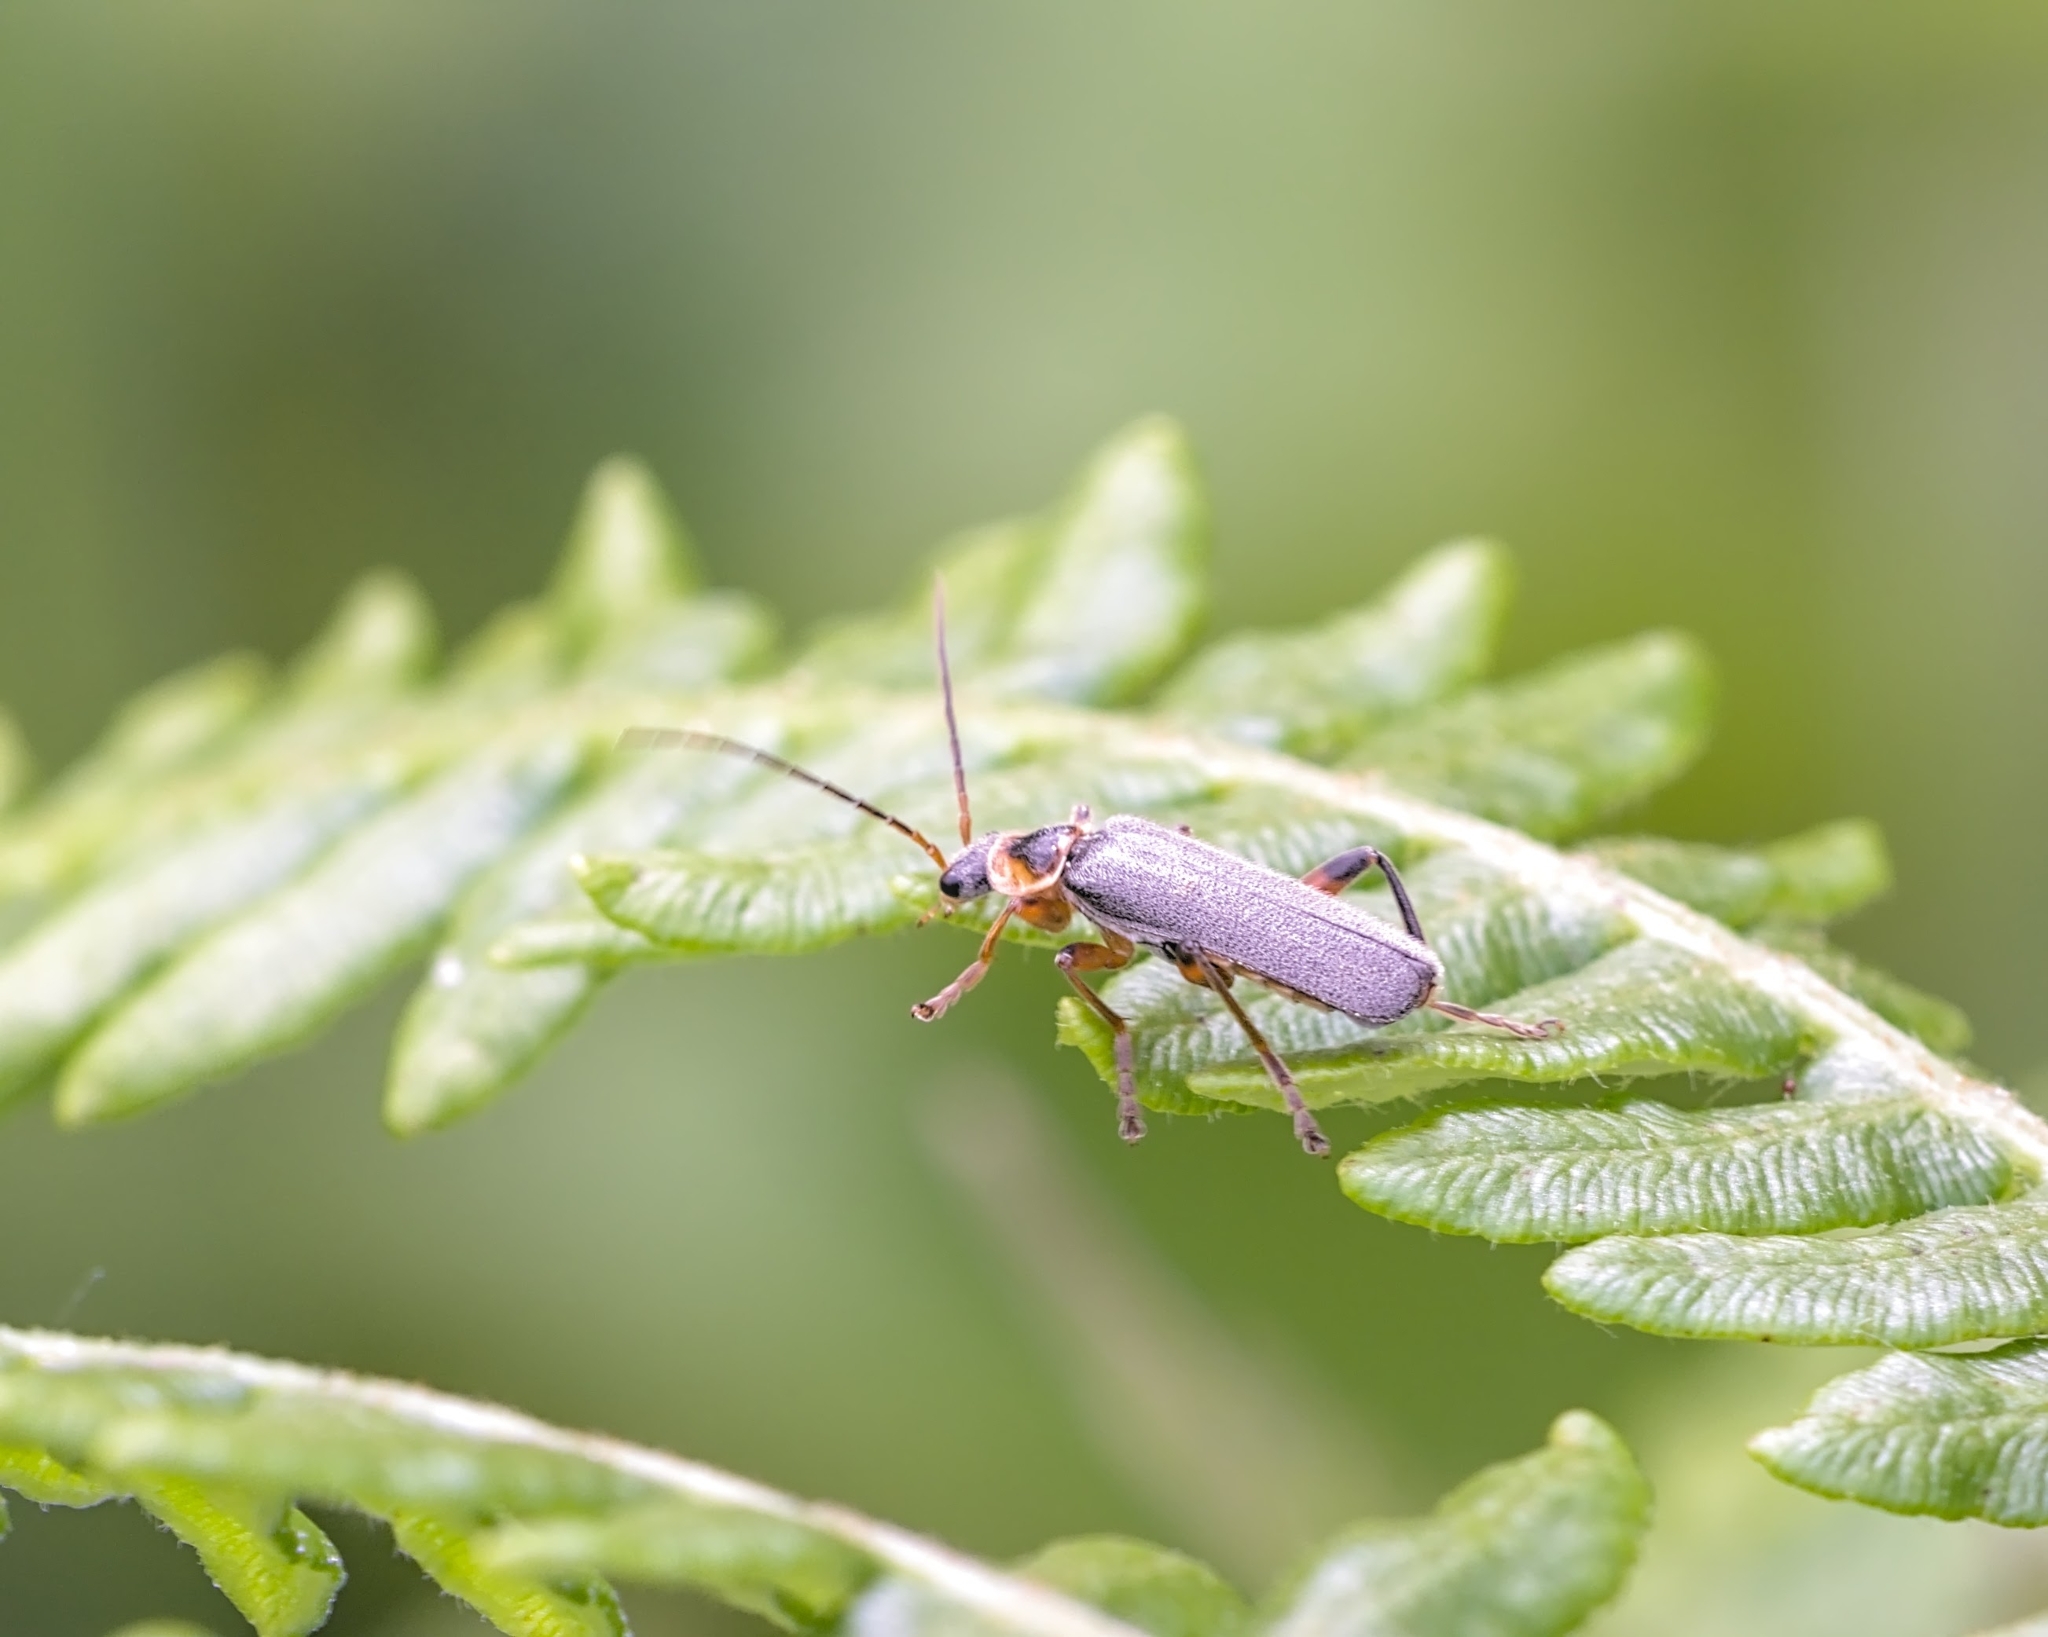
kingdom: Animalia
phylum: Arthropoda
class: Insecta
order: Coleoptera
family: Cantharidae
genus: Cantharis
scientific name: Cantharis nigricans
